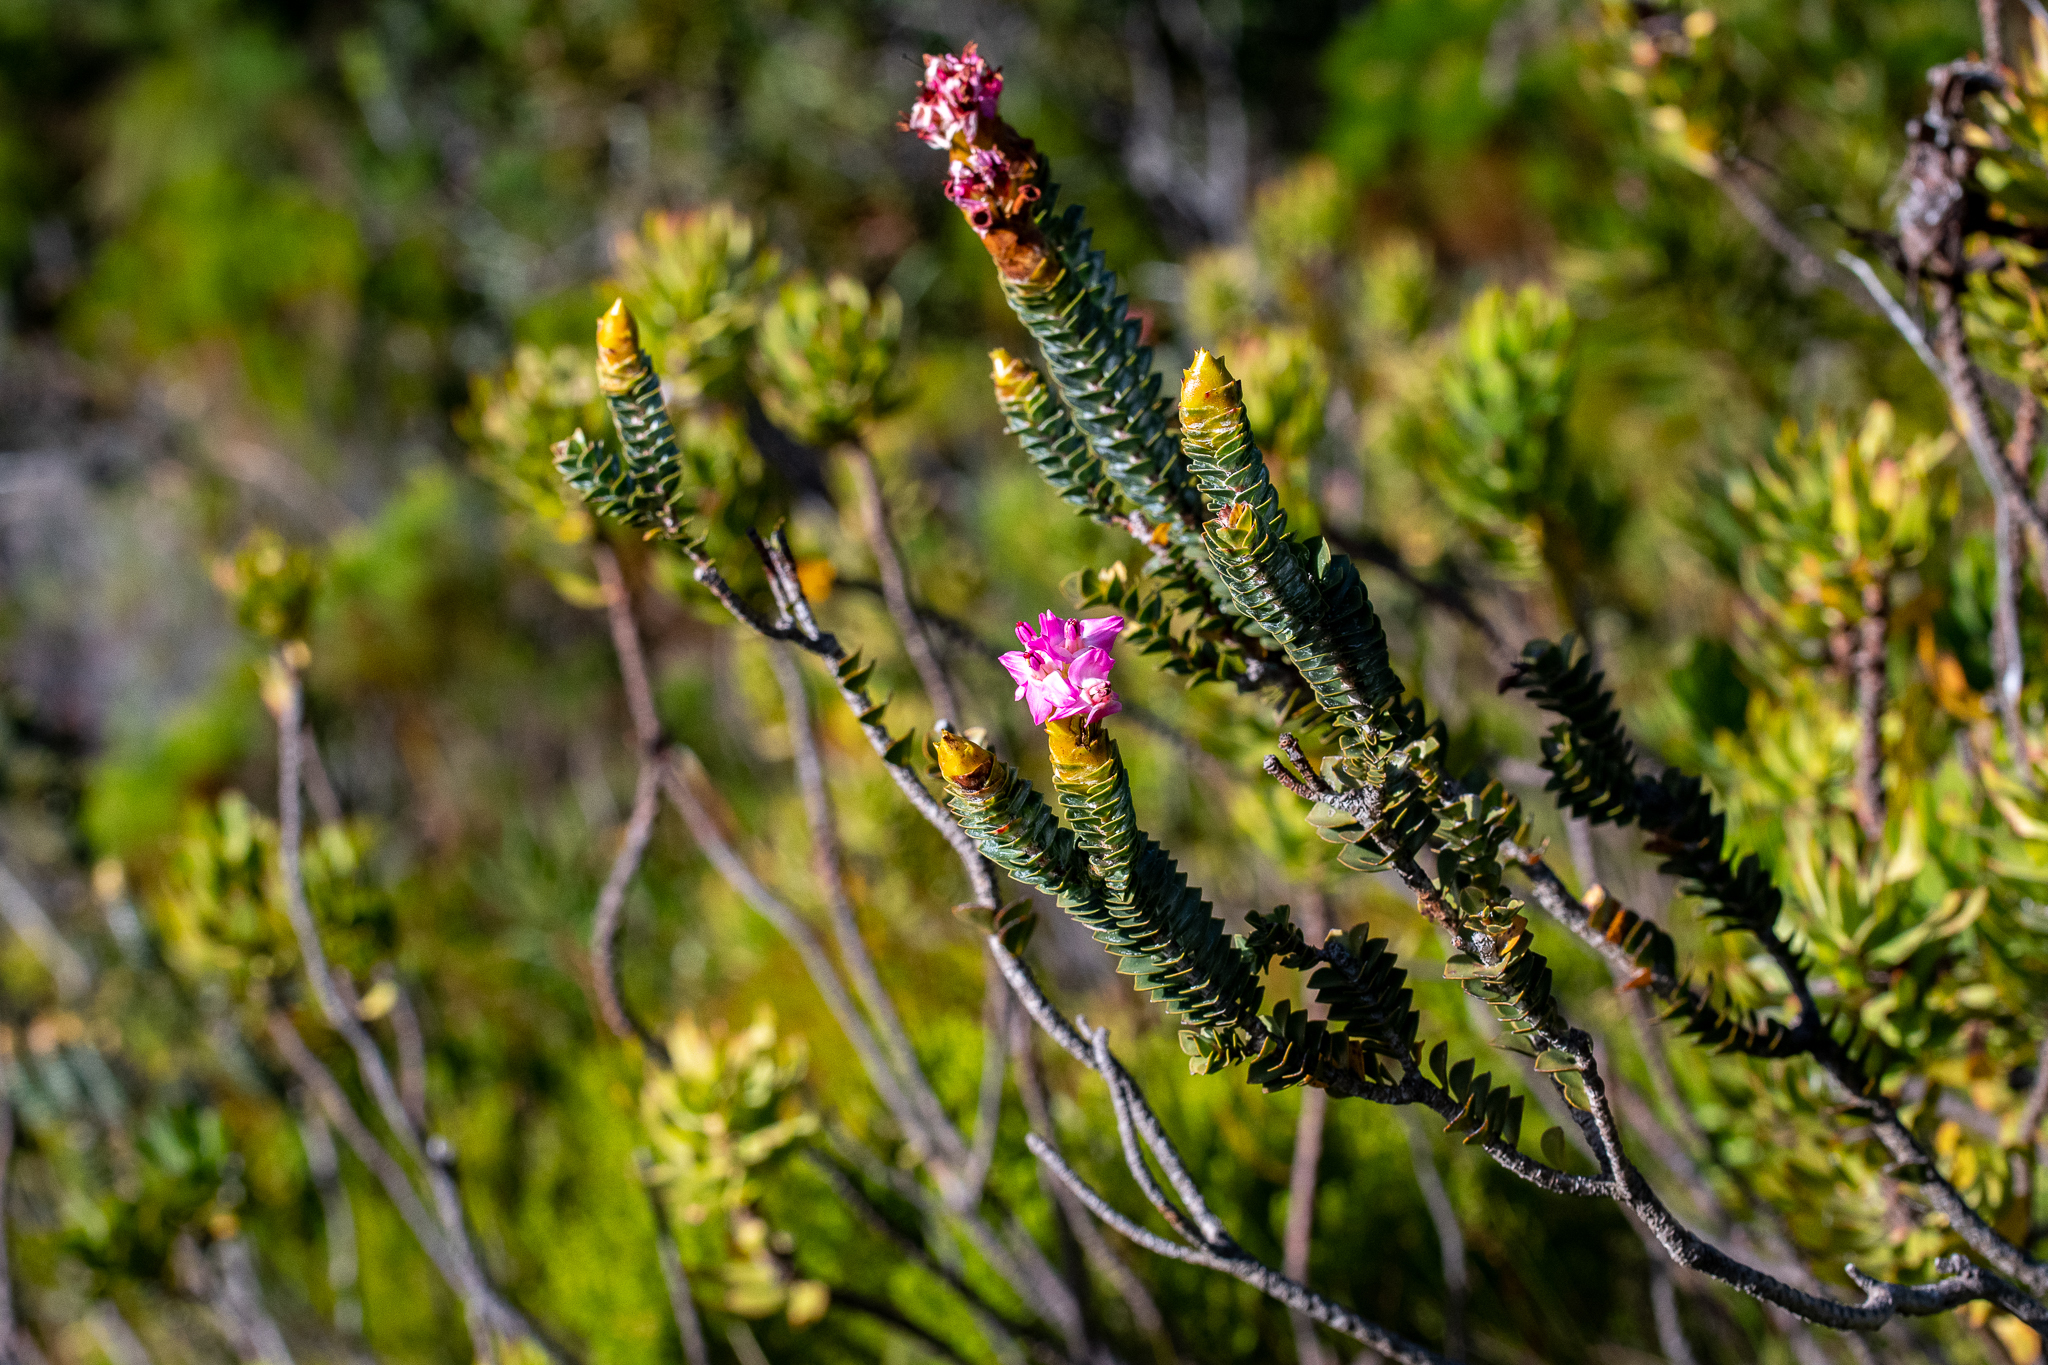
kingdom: Plantae
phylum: Tracheophyta
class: Magnoliopsida
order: Myrtales
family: Penaeaceae
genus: Saltera
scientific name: Saltera sarcocolla
